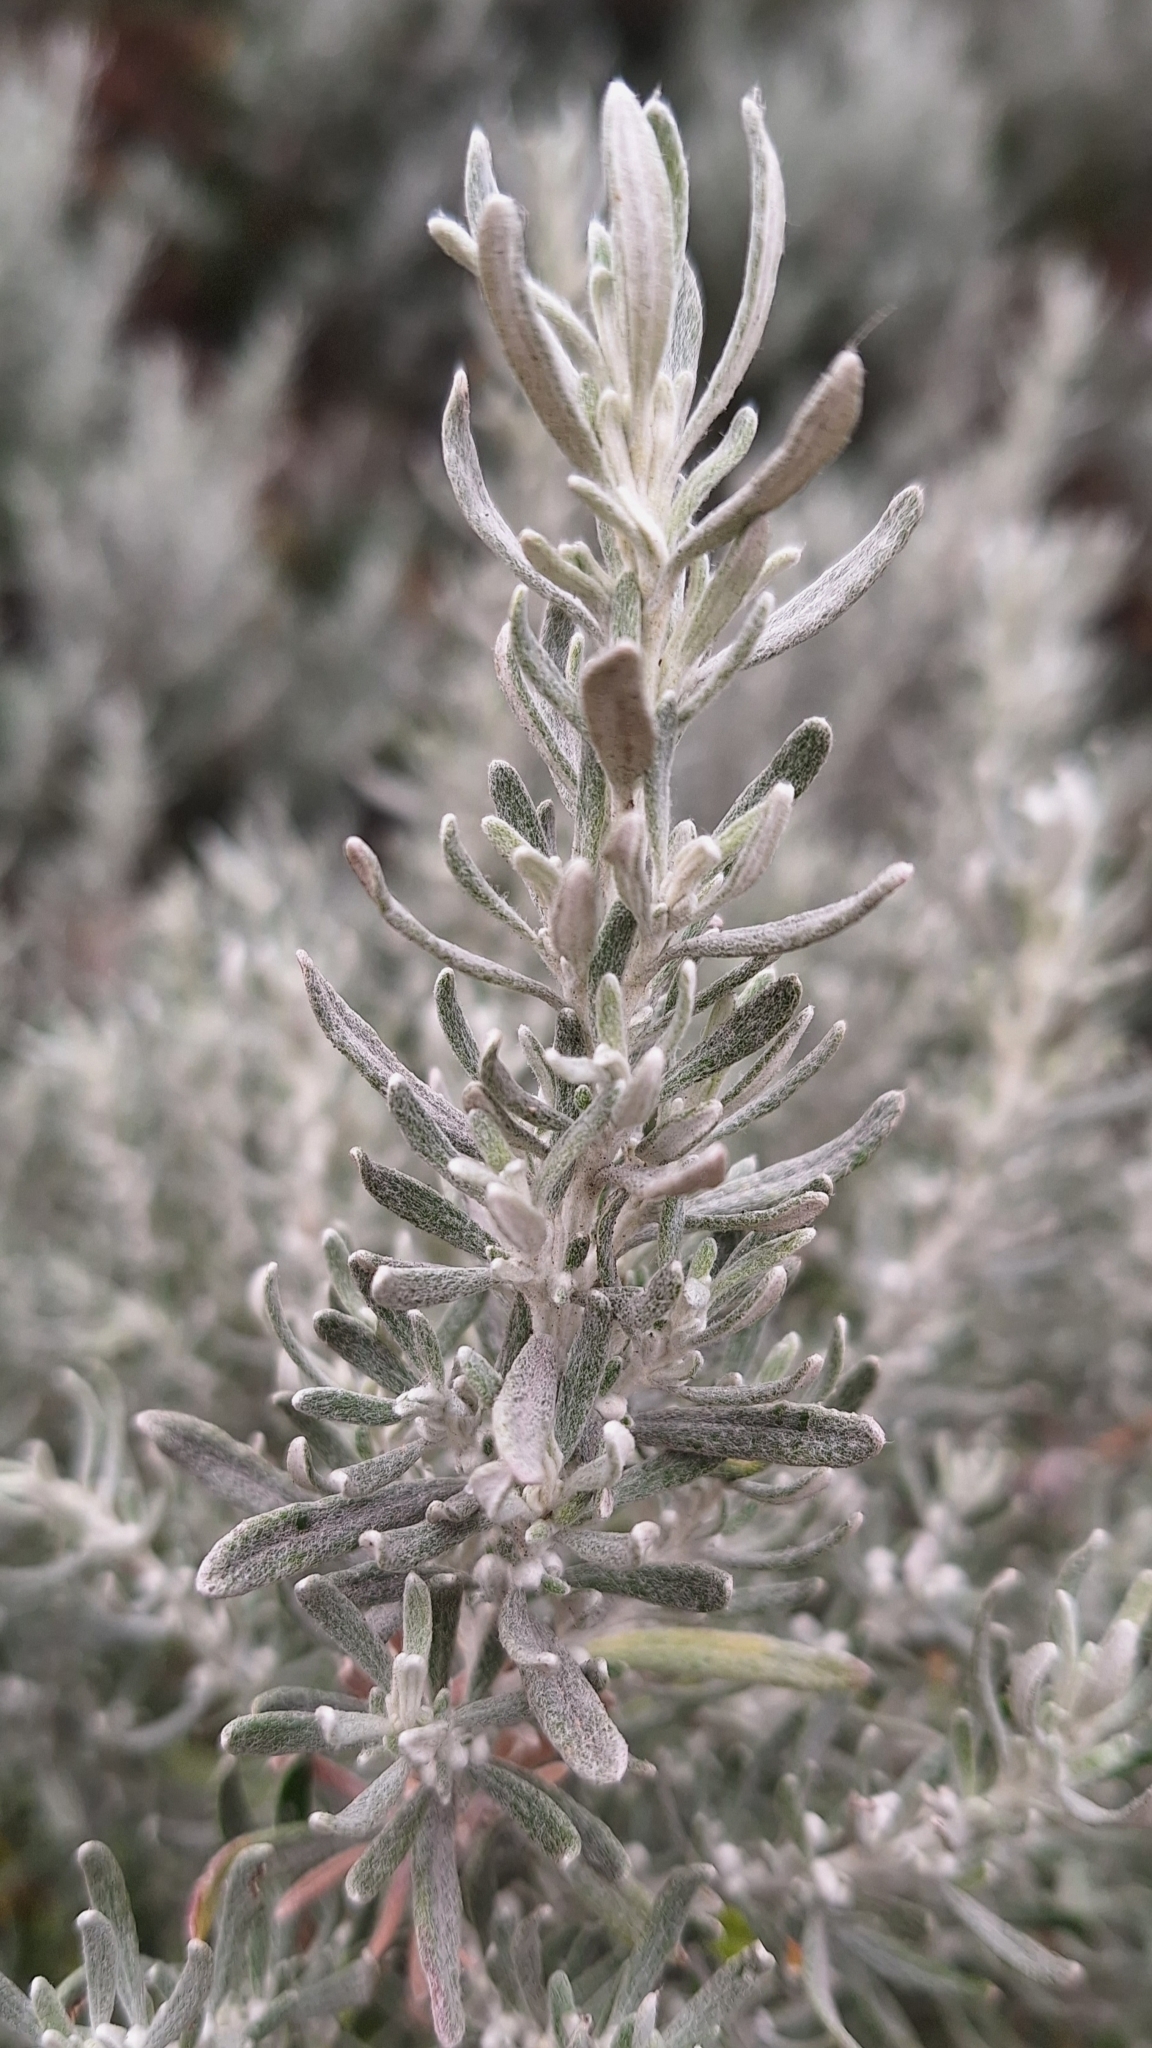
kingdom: Plantae
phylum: Tracheophyta
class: Magnoliopsida
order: Asterales
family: Asteraceae
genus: Olearia
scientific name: Olearia axillaris
